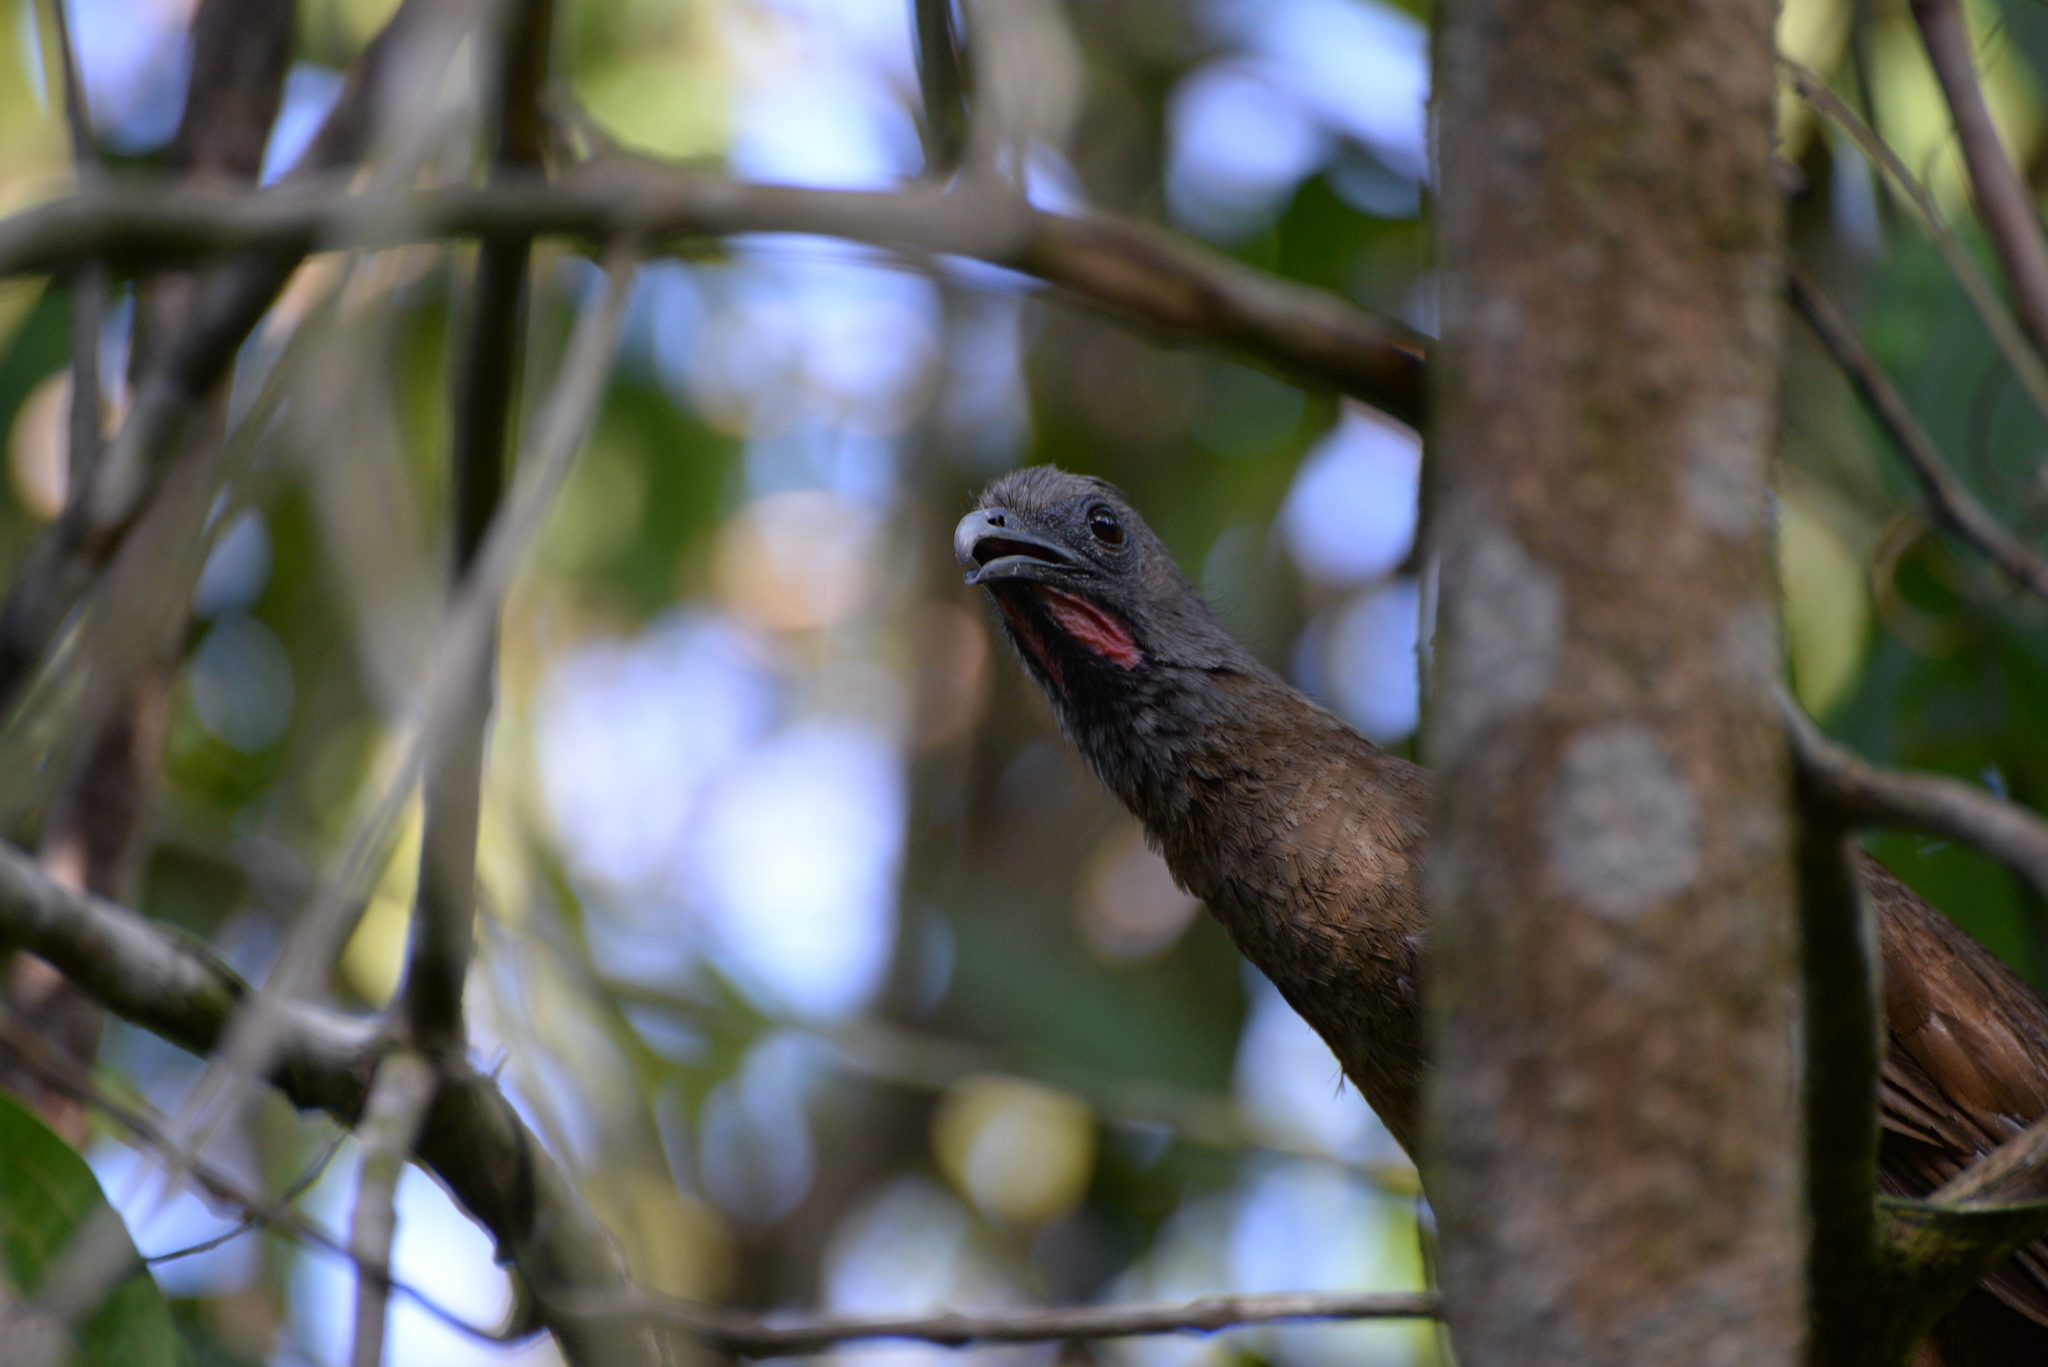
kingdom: Animalia
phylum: Chordata
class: Aves
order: Galliformes
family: Cracidae
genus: Ortalis
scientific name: Ortalis vetula
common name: Plain chachalaca
